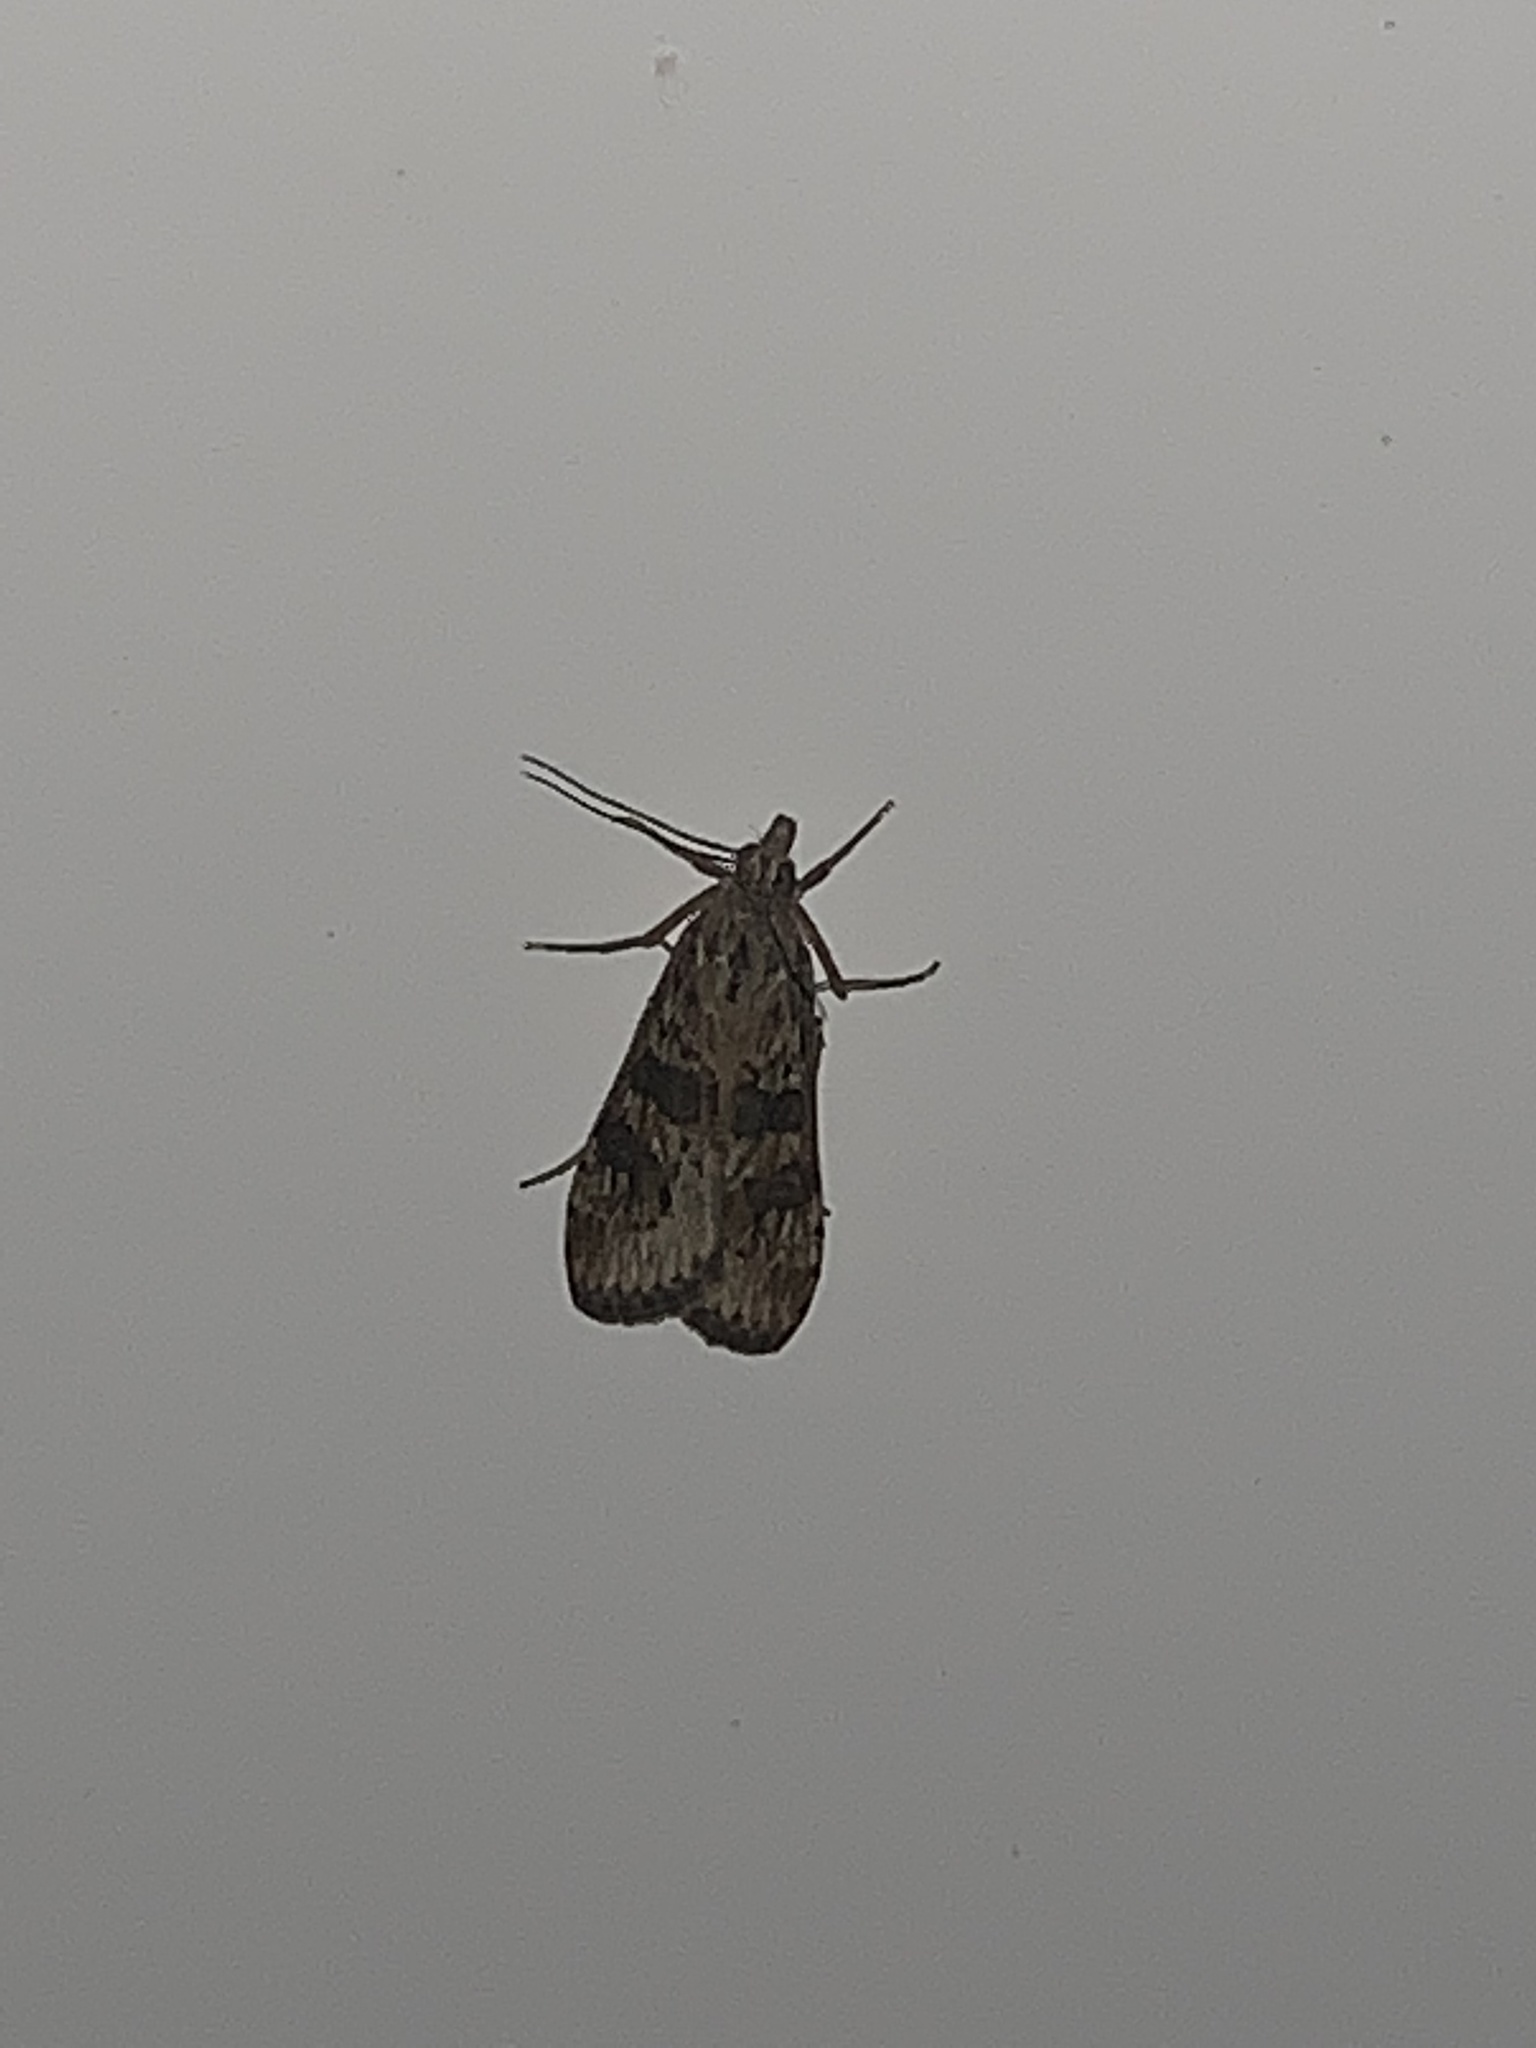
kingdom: Animalia
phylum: Arthropoda
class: Insecta
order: Lepidoptera
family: Crambidae
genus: Nomophila
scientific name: Nomophila nearctica
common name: American rush veneer
